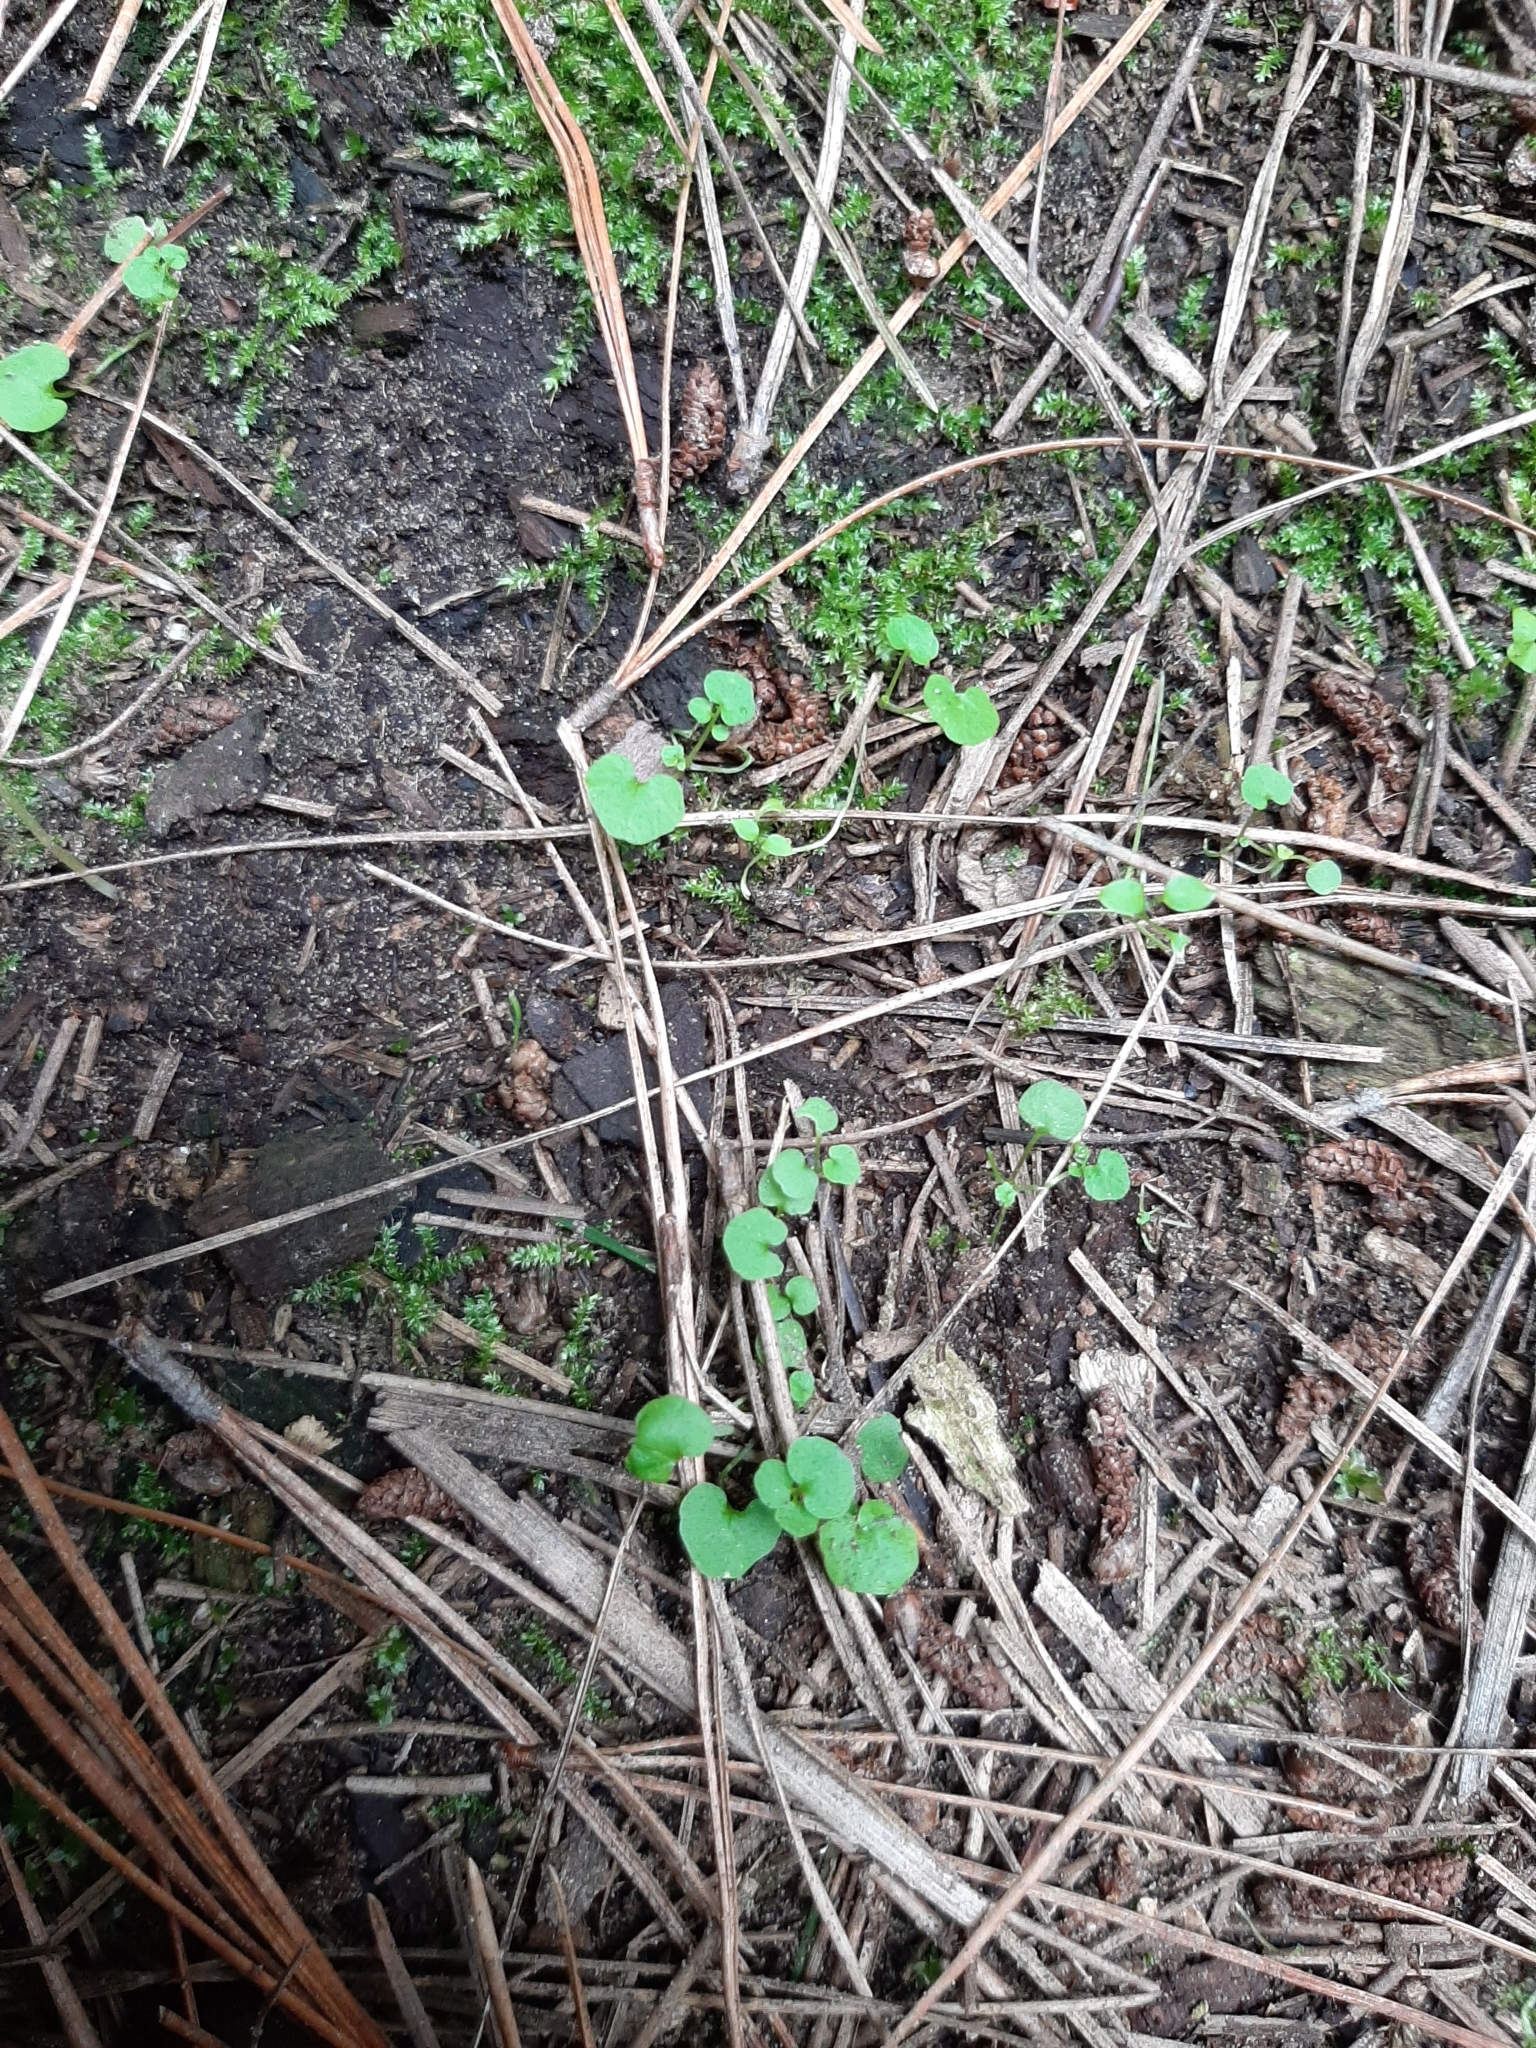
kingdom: Plantae
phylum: Tracheophyta
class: Magnoliopsida
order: Brassicales
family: Brassicaceae
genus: Cardamine
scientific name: Cardamine hirsuta
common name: Hairy bittercress
